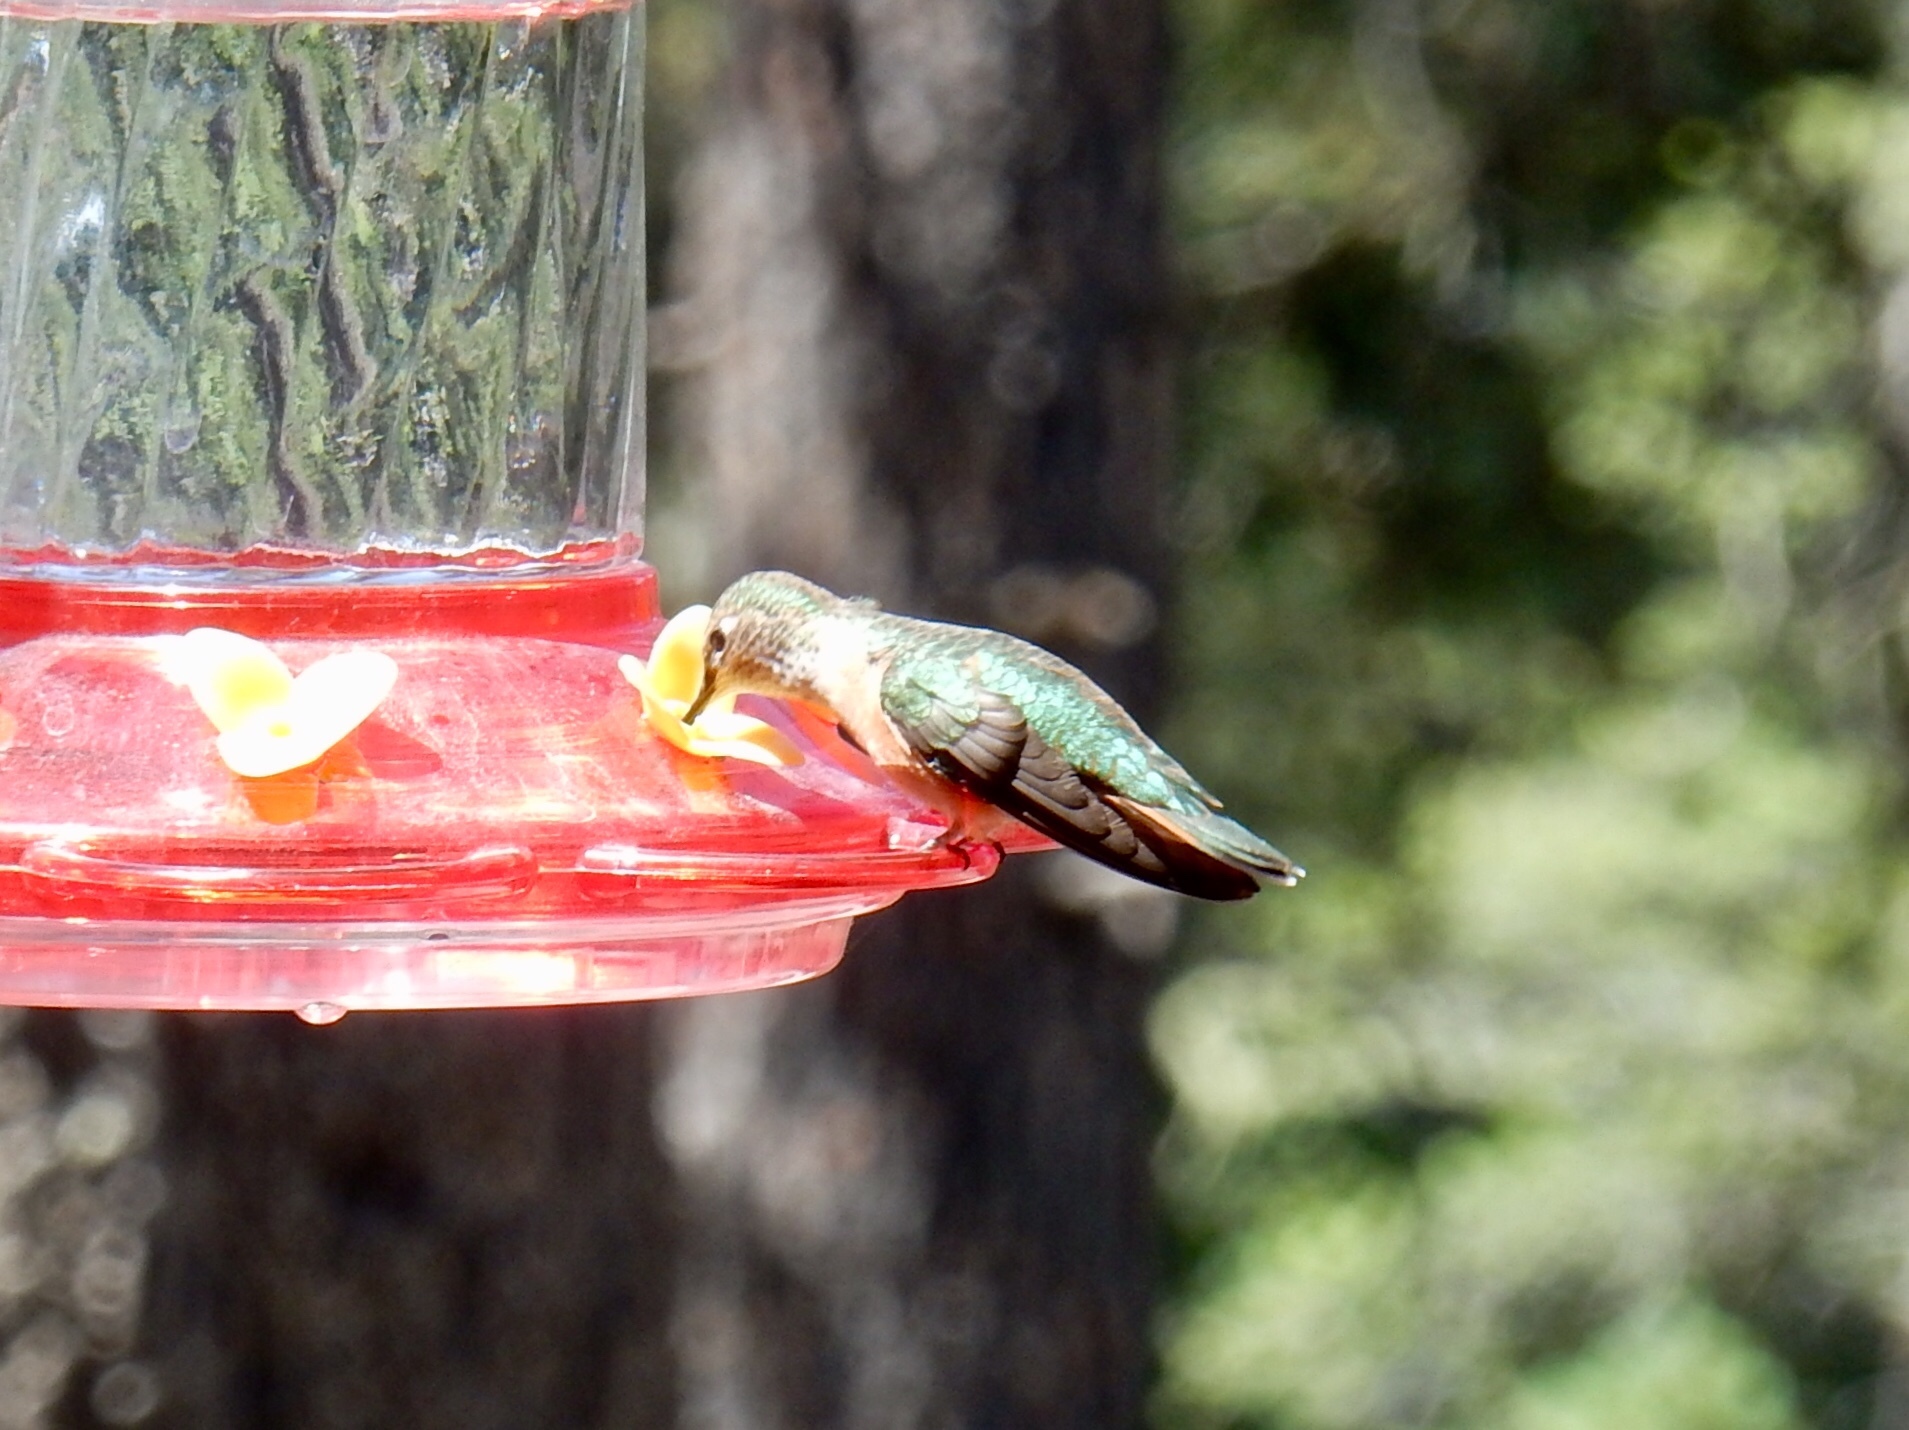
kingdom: Animalia
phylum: Chordata
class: Aves
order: Apodiformes
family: Trochilidae
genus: Selasphorus
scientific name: Selasphorus platycercus
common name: Broad-tailed hummingbird
